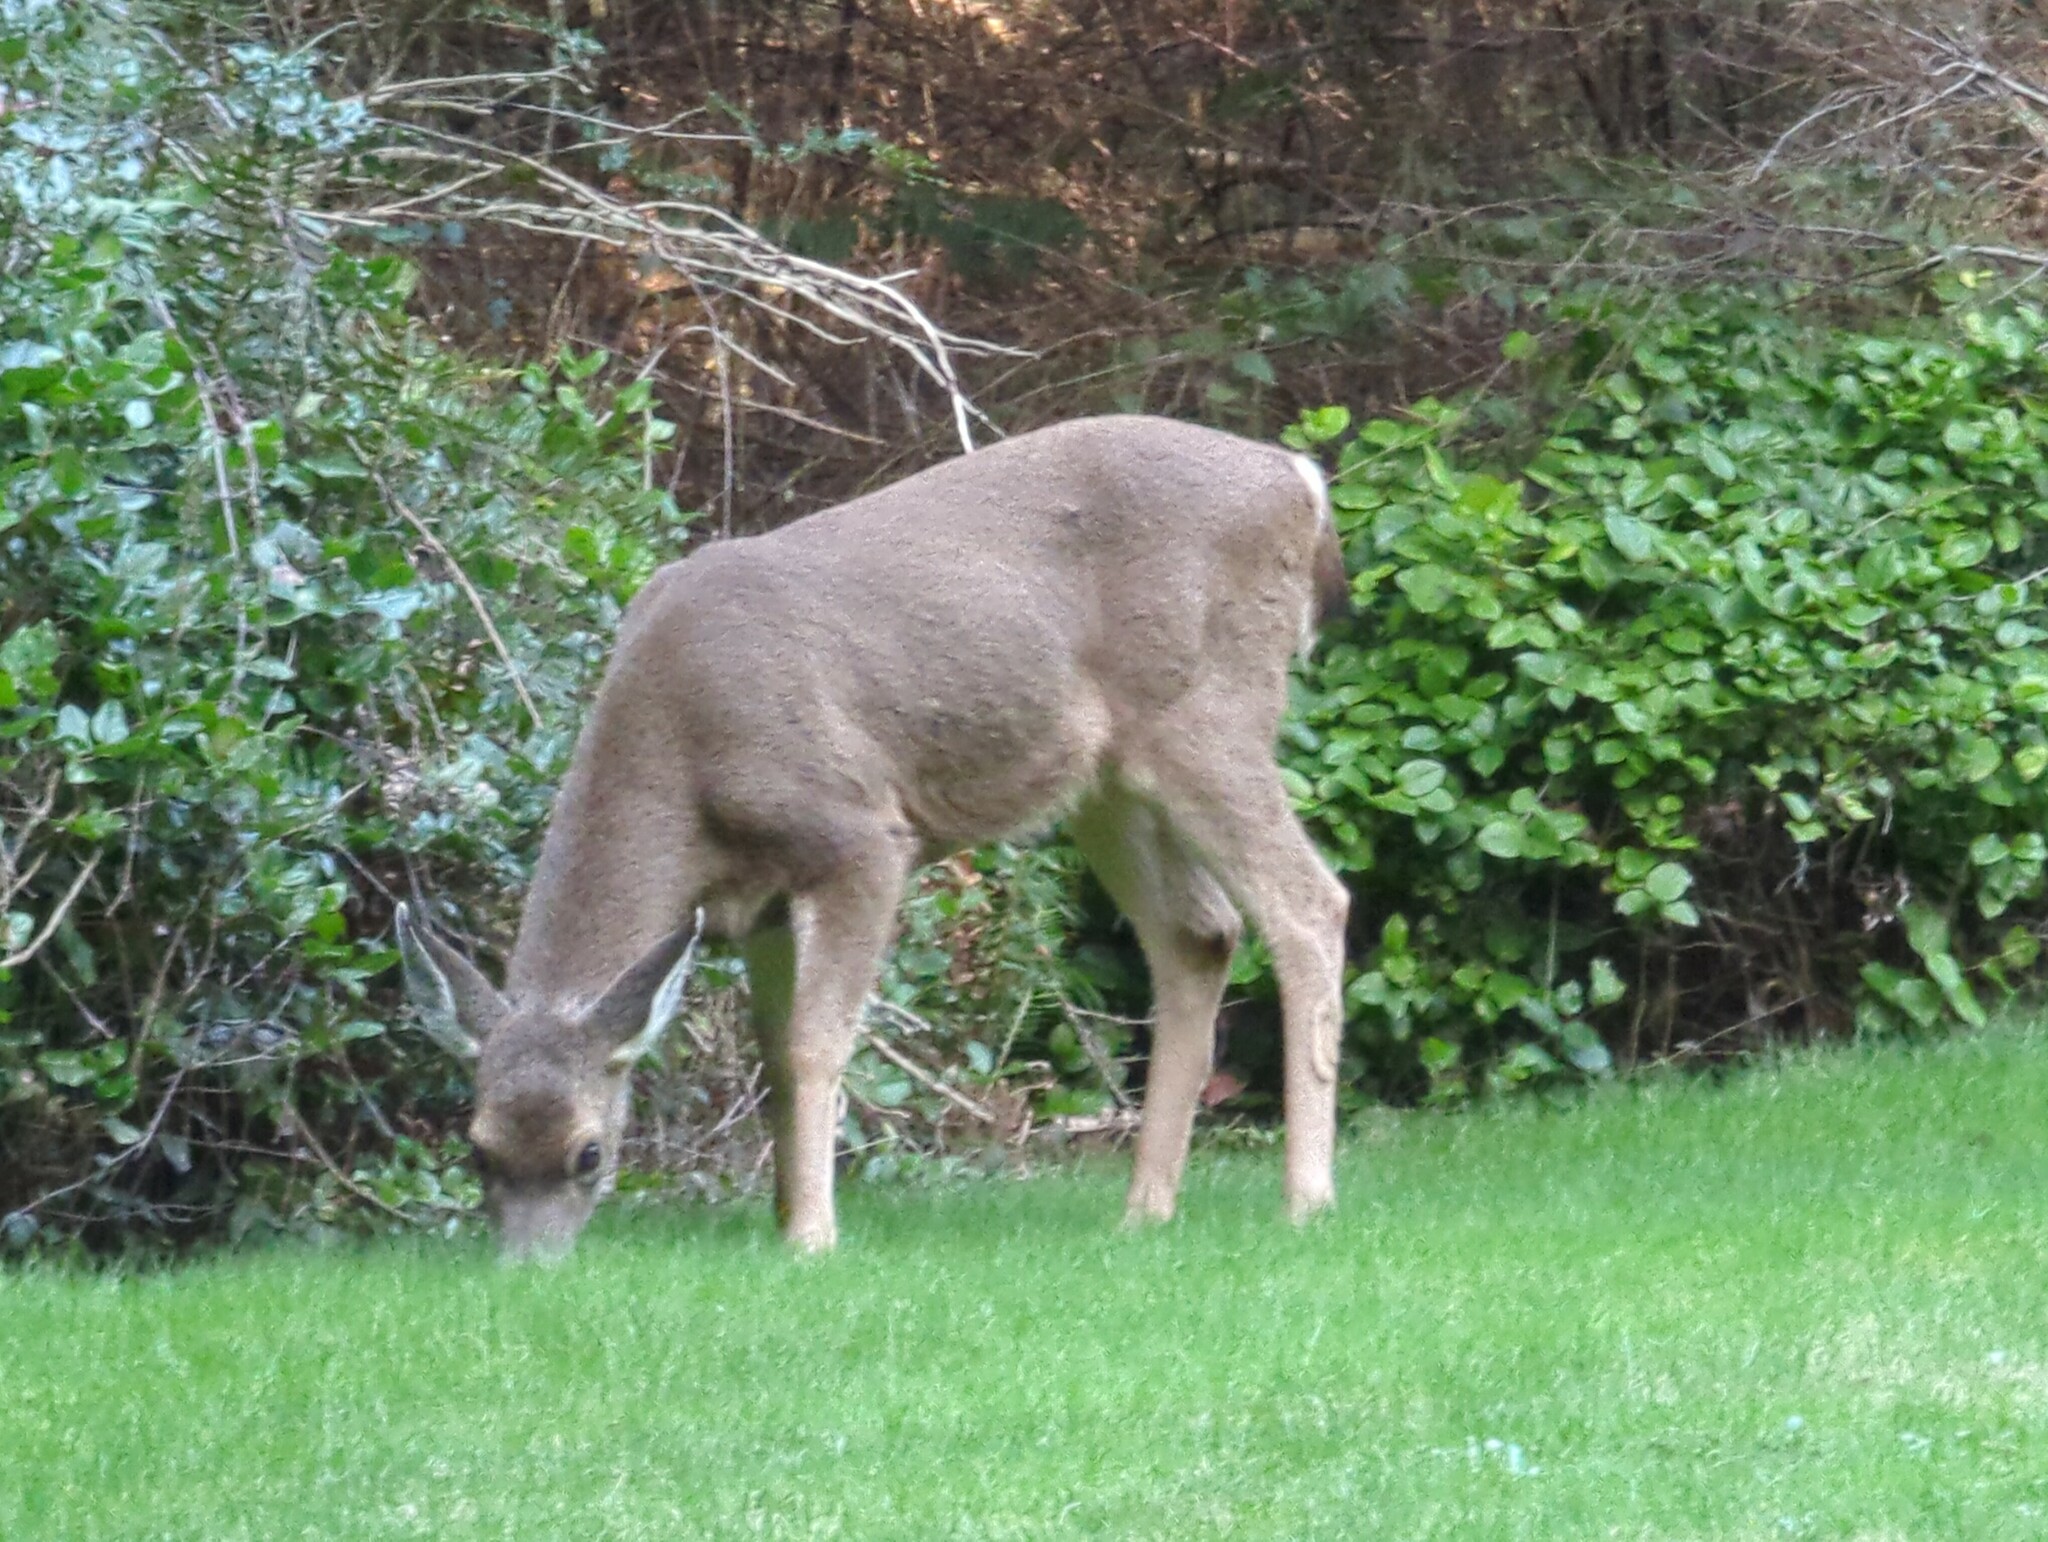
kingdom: Animalia
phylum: Chordata
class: Mammalia
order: Artiodactyla
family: Cervidae
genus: Odocoileus
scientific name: Odocoileus hemionus
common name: Mule deer
